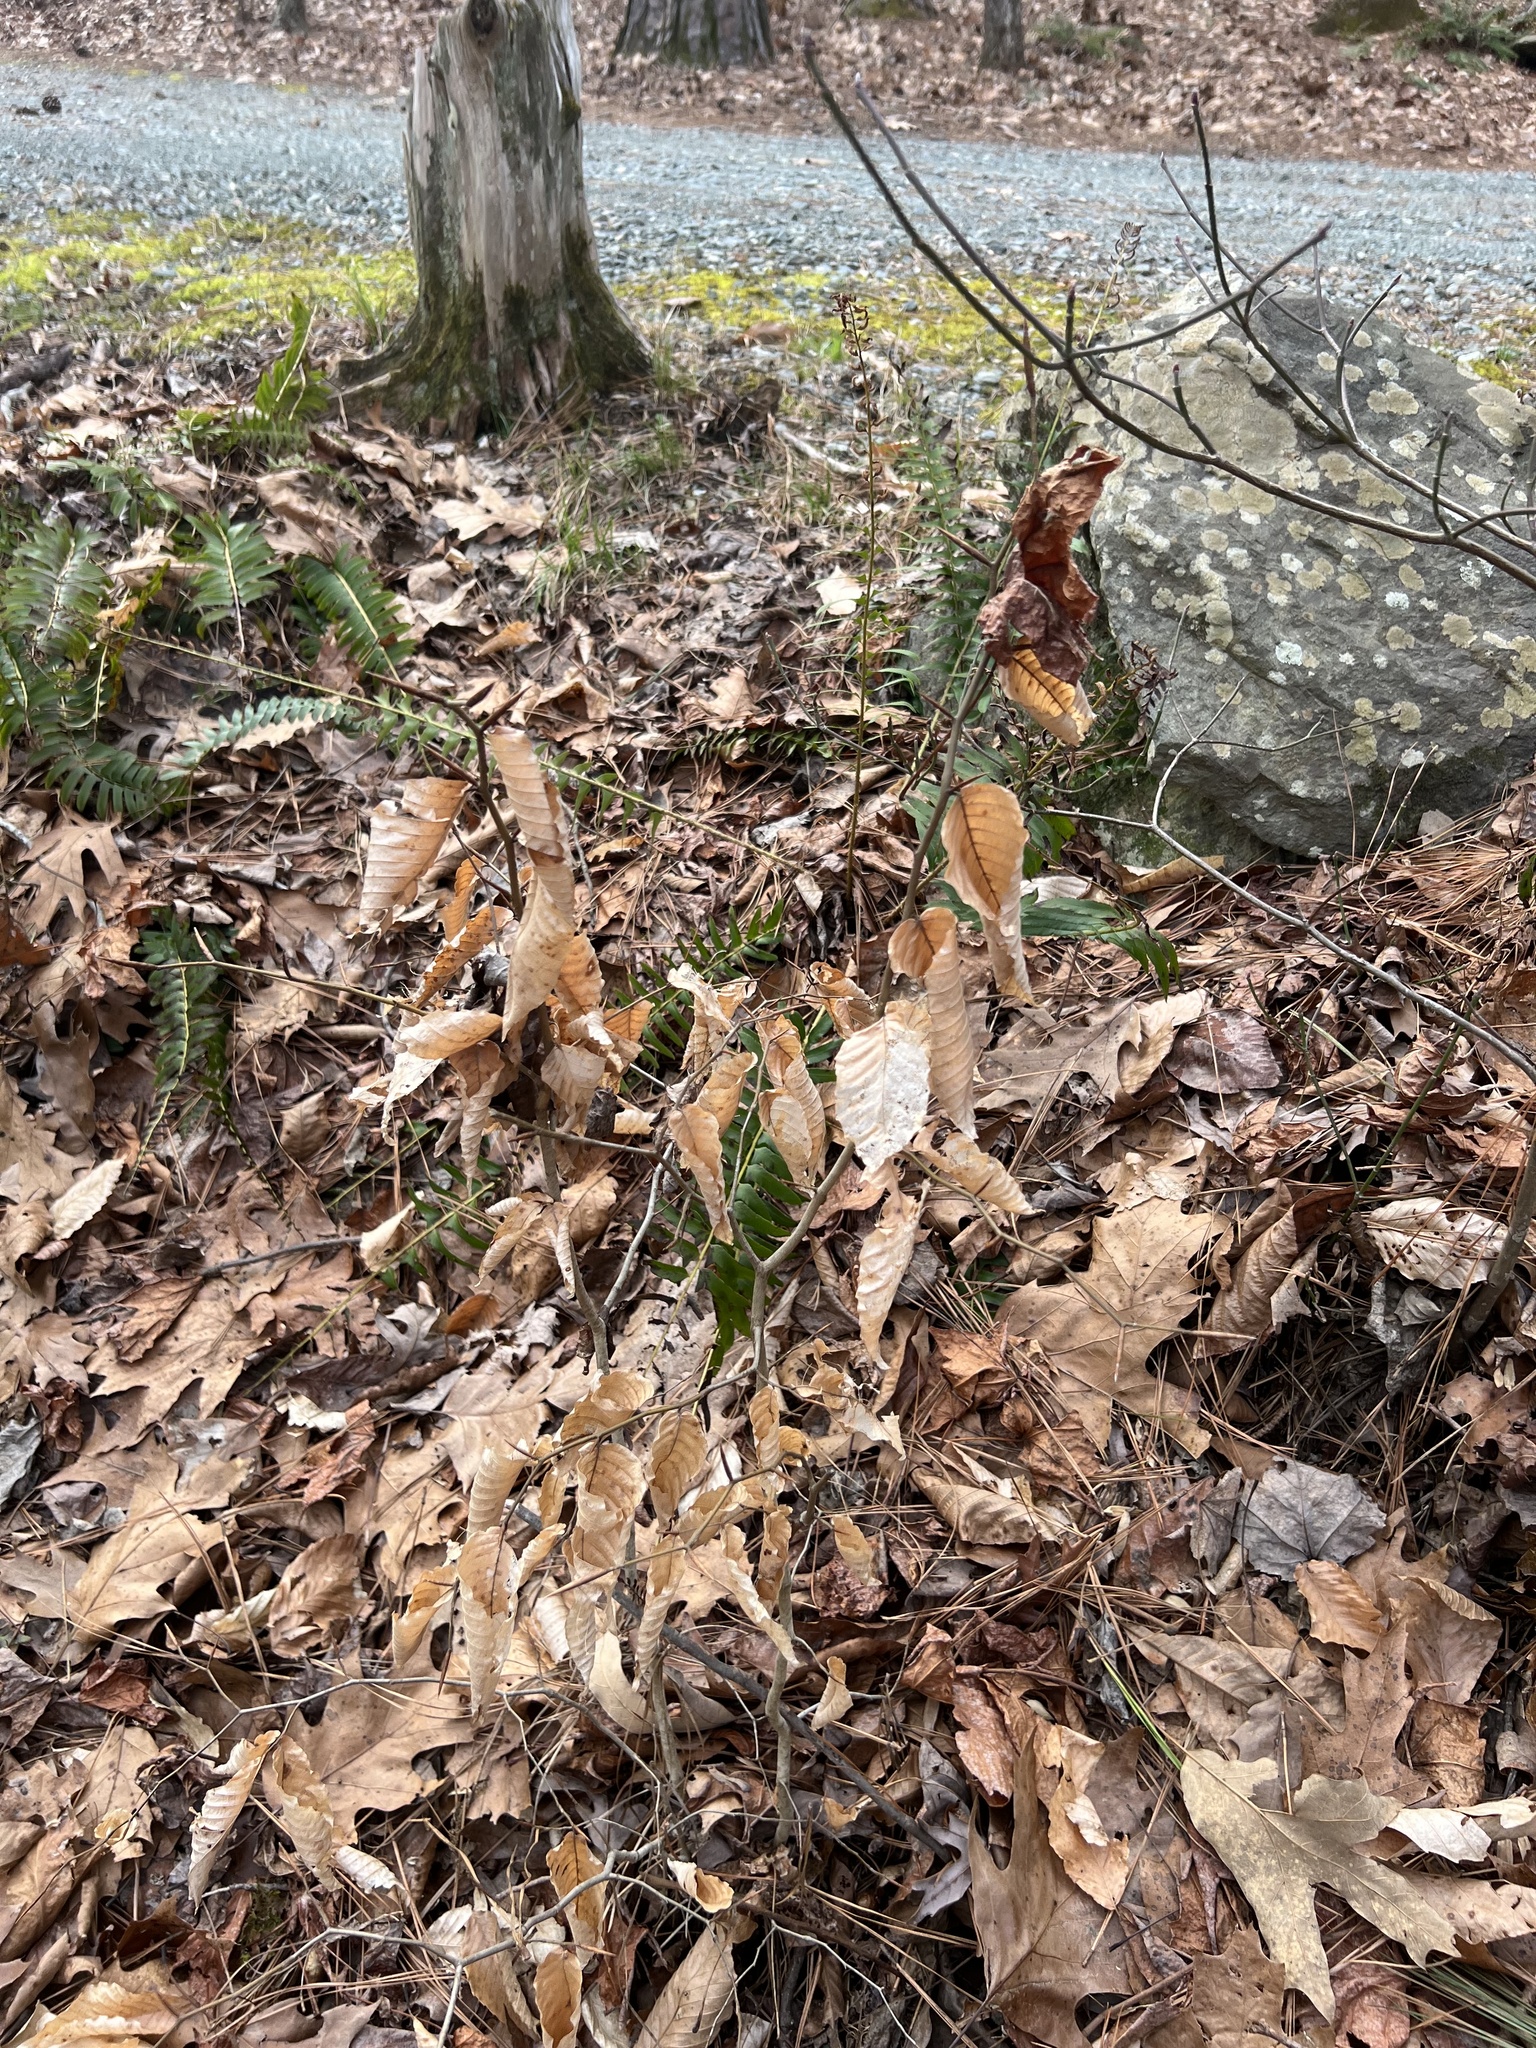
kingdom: Plantae
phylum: Tracheophyta
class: Magnoliopsida
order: Fagales
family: Fagaceae
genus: Fagus
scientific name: Fagus grandifolia
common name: American beech
